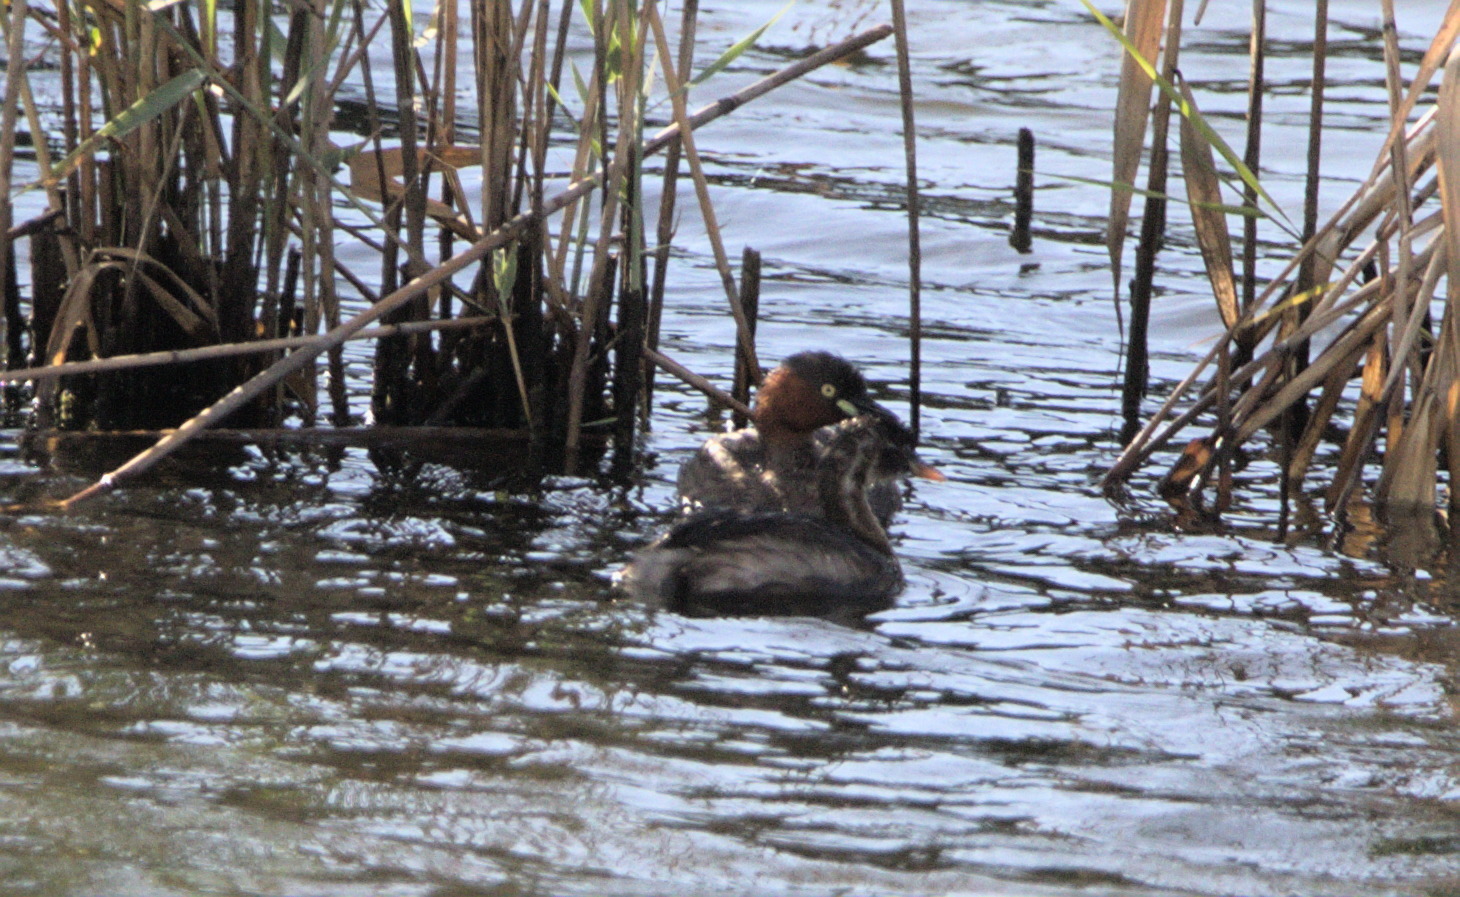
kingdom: Animalia
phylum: Chordata
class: Aves
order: Podicipediformes
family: Podicipedidae
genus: Tachybaptus
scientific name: Tachybaptus ruficollis
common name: Little grebe
